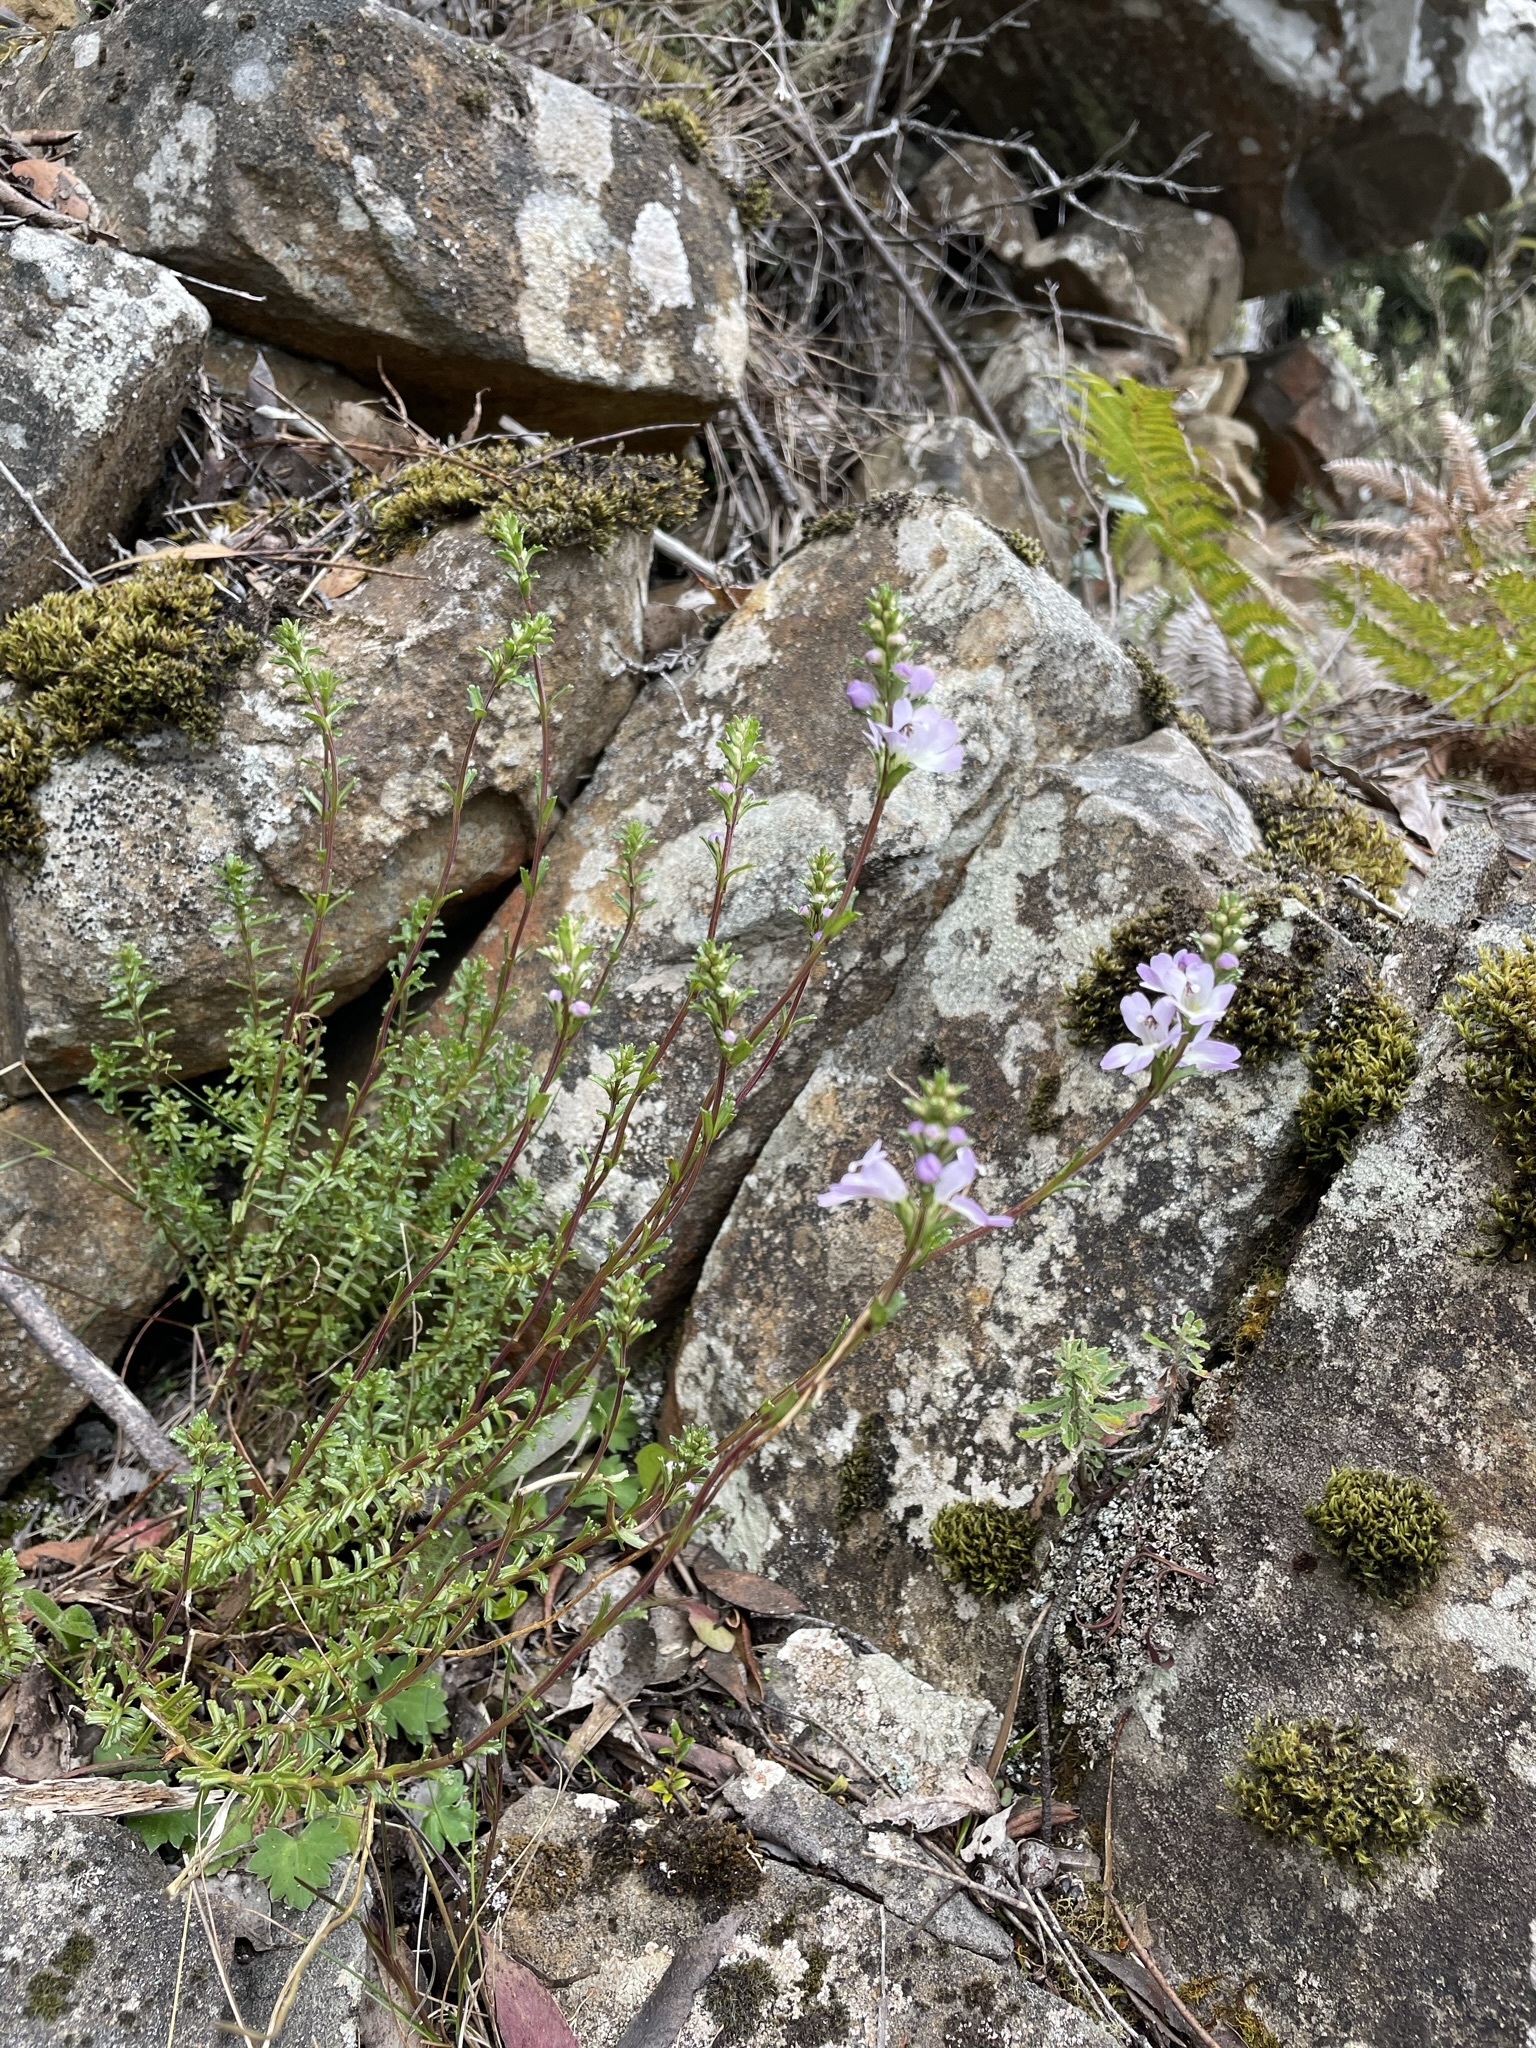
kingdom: Plantae
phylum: Tracheophyta
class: Magnoliopsida
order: Lamiales
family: Orobanchaceae
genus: Euphrasia
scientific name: Euphrasia collina
